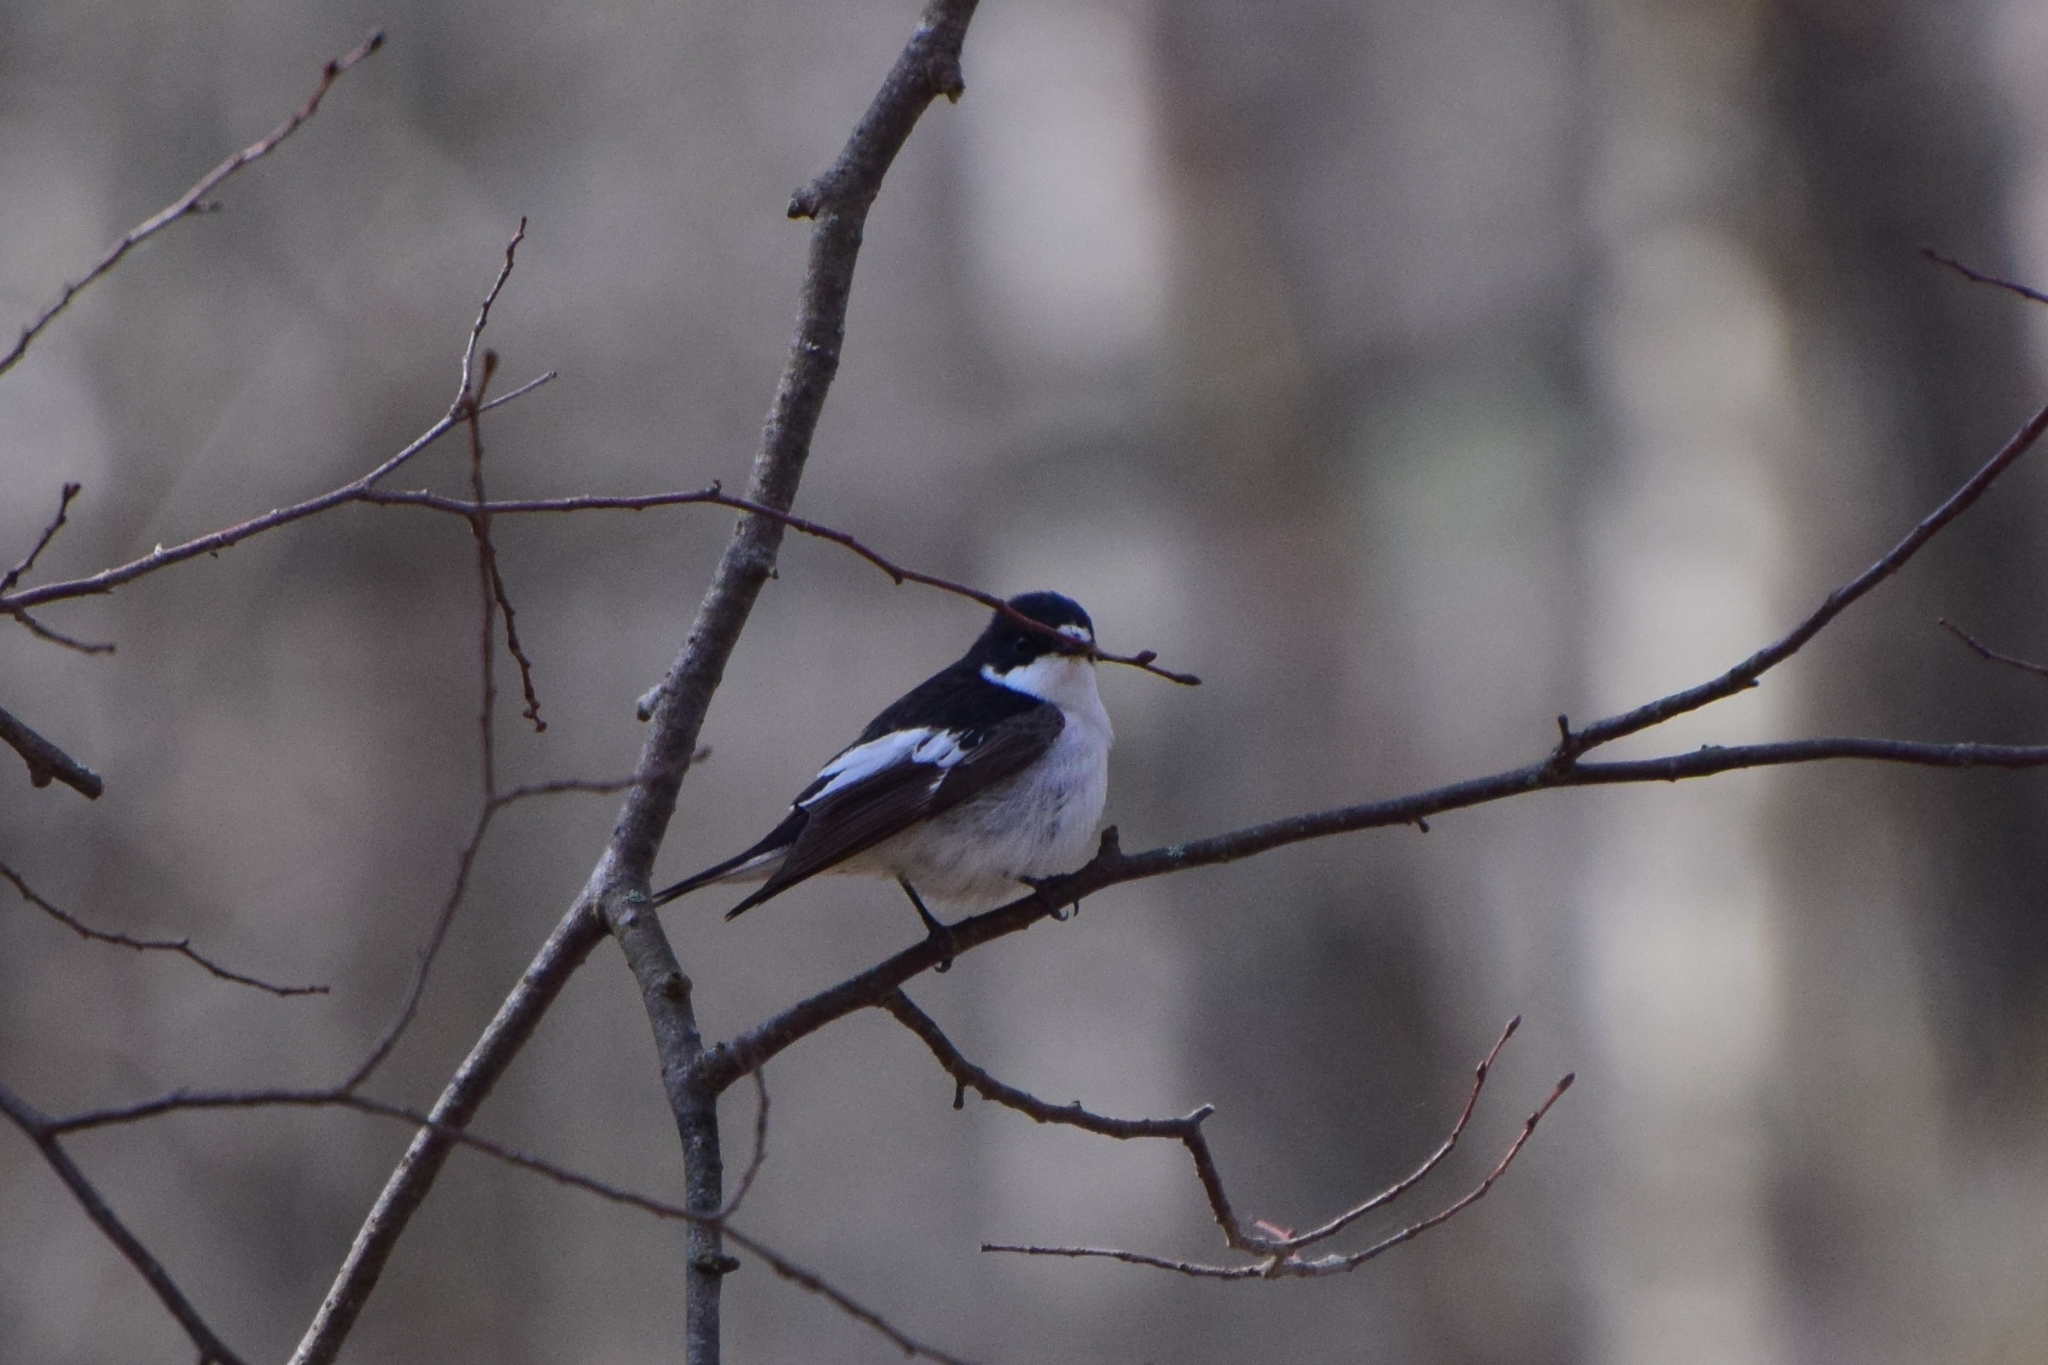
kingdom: Animalia
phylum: Chordata
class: Aves
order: Passeriformes
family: Muscicapidae
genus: Ficedula
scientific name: Ficedula hypoleuca
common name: European pied flycatcher
